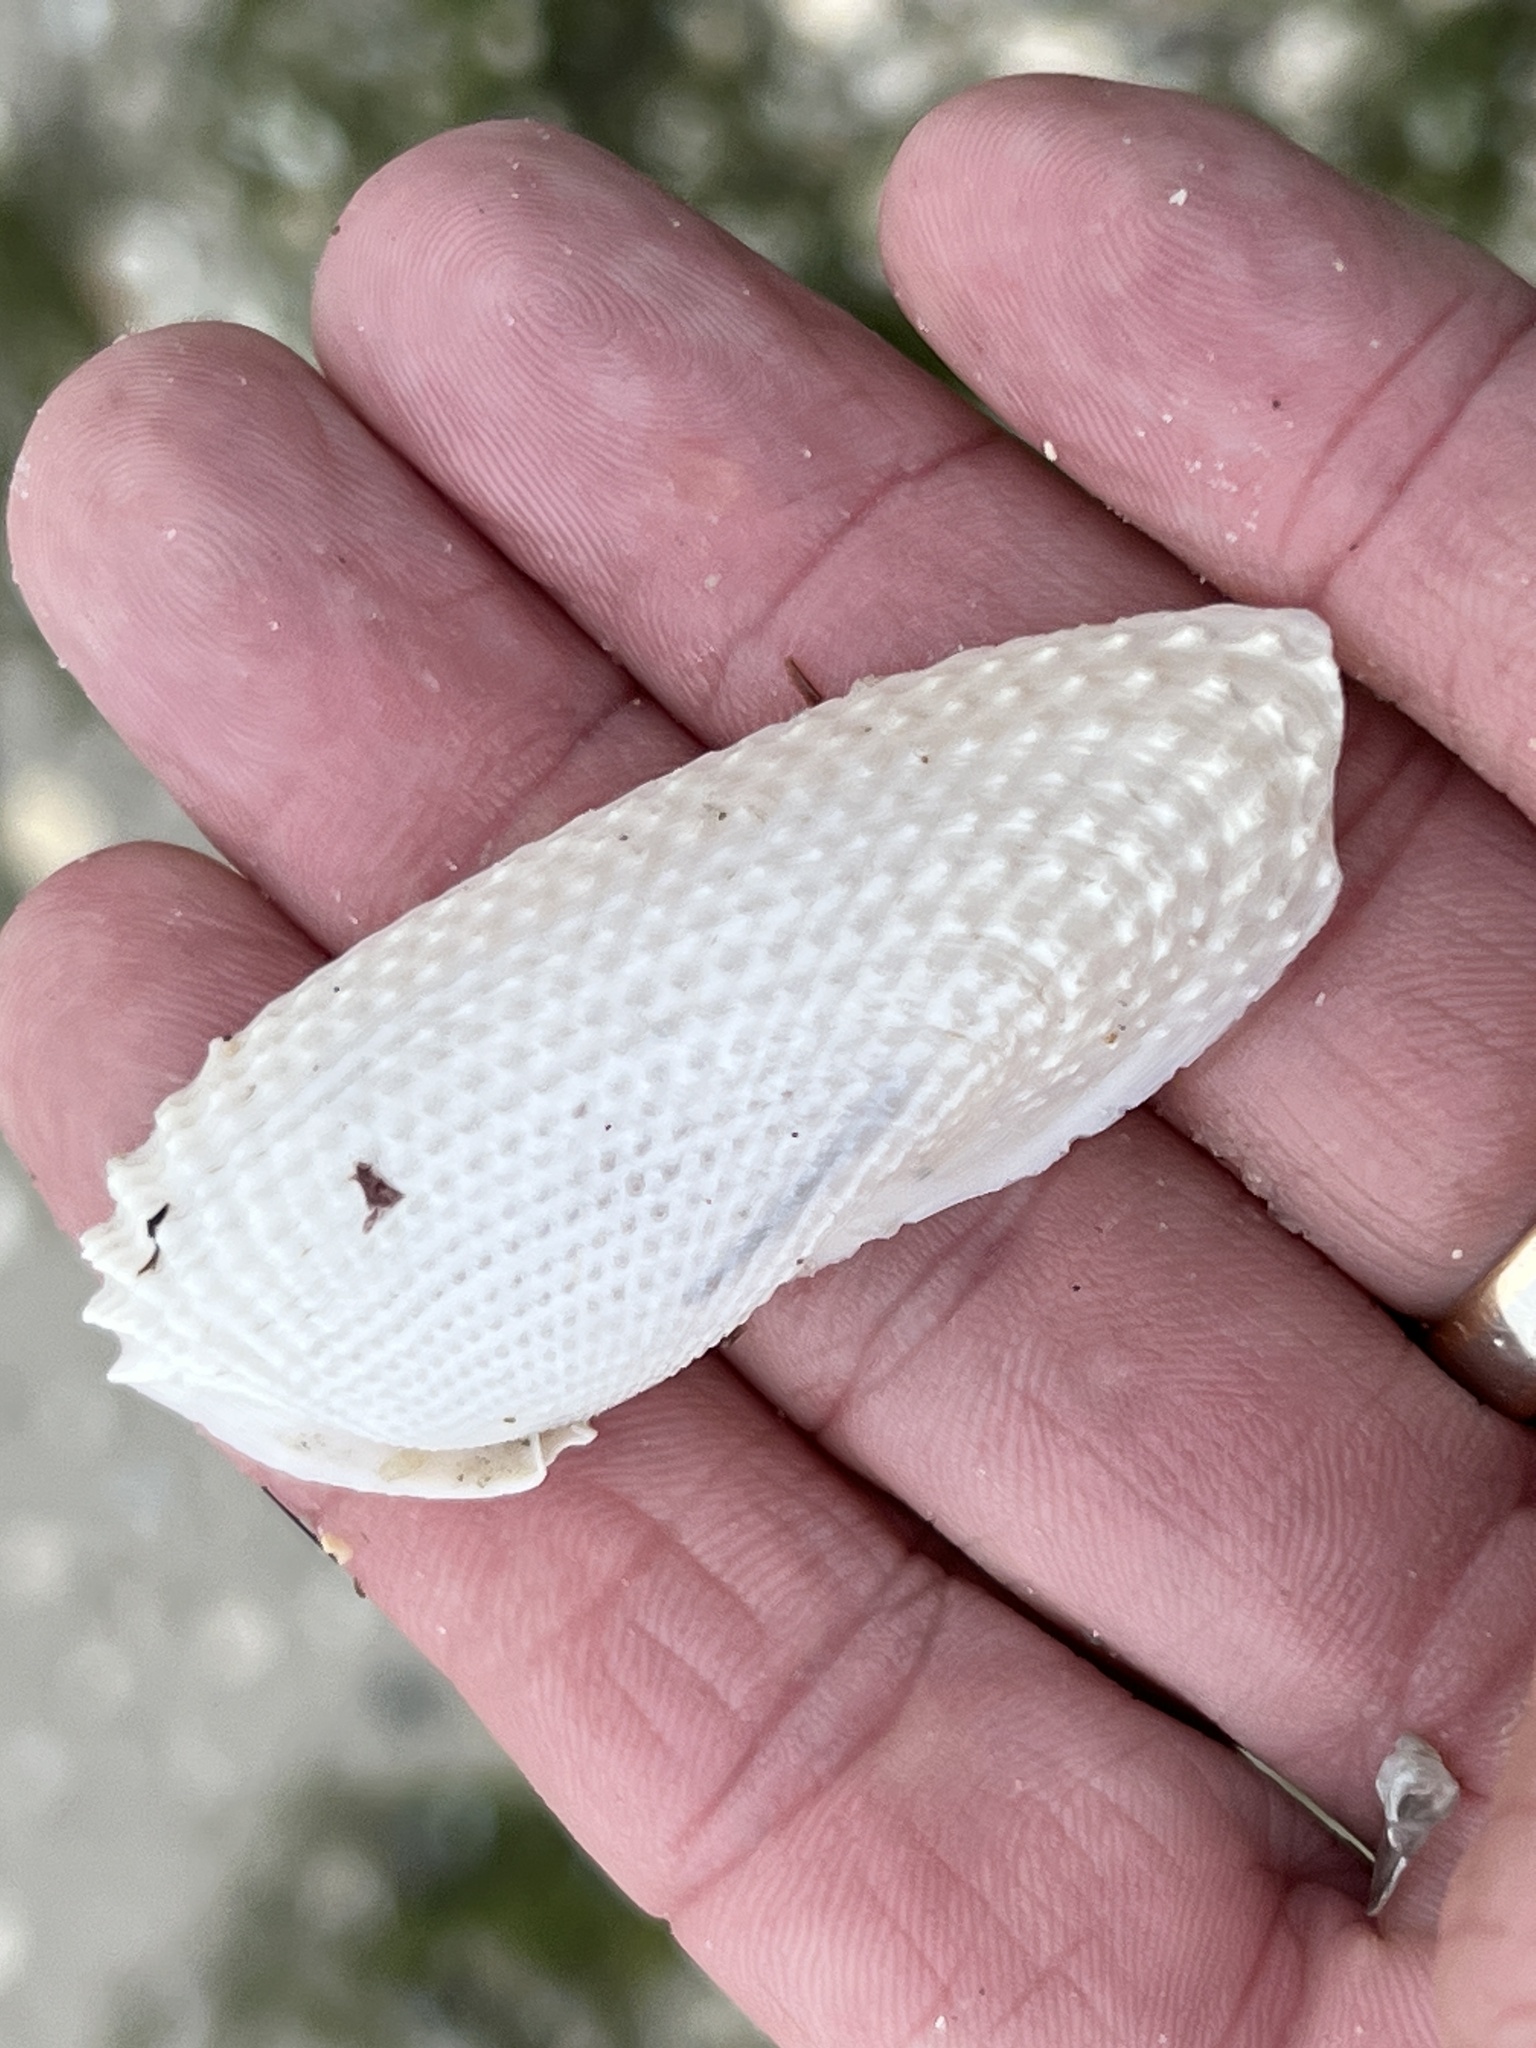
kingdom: Animalia
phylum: Mollusca
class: Bivalvia
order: Myida
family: Pholadidae
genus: Cyrtopleura
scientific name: Cyrtopleura costata
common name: Angel wing
